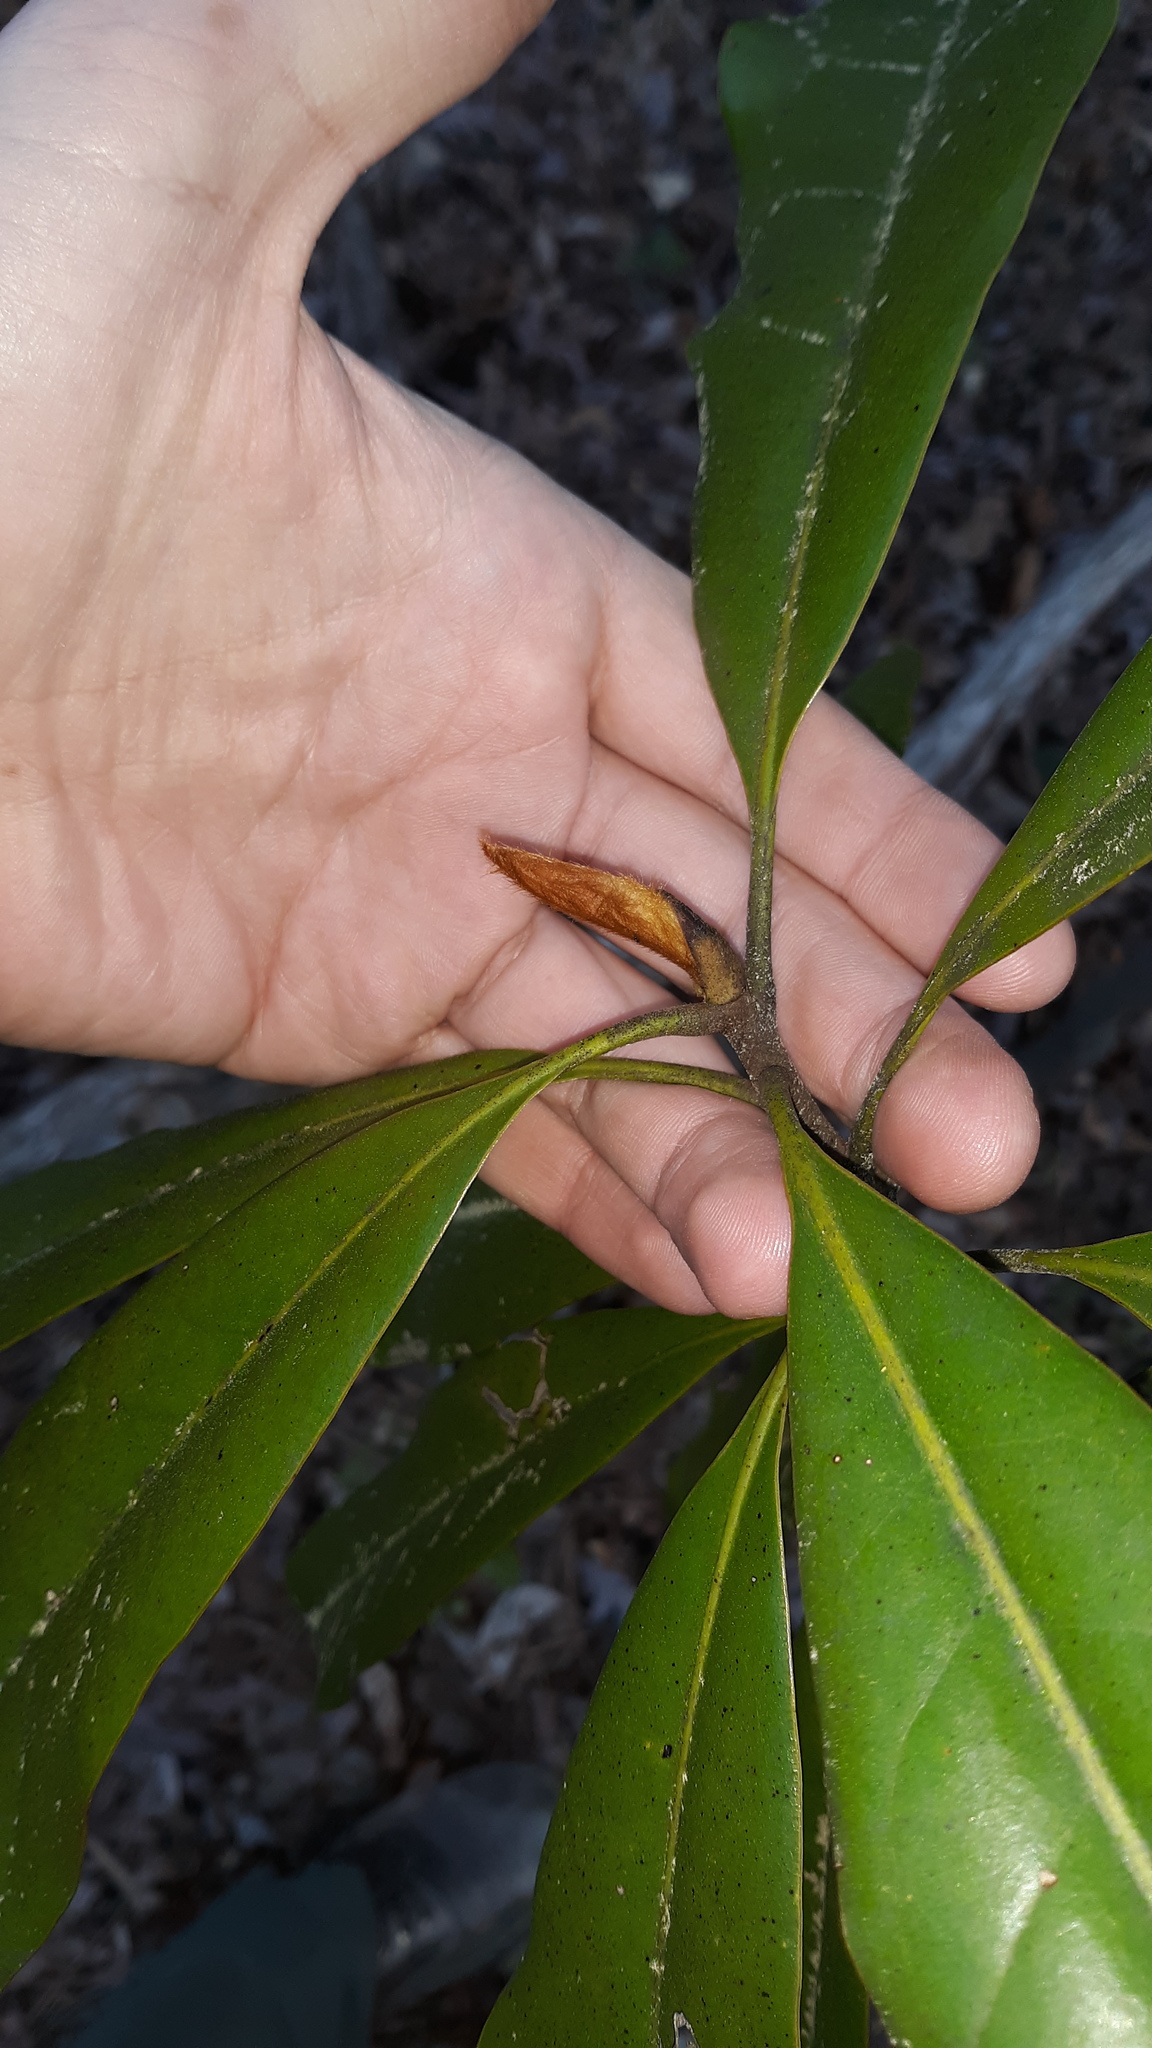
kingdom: Plantae
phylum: Tracheophyta
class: Magnoliopsida
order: Magnoliales
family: Magnoliaceae
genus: Magnolia
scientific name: Magnolia grandiflora
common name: Southern magnolia
